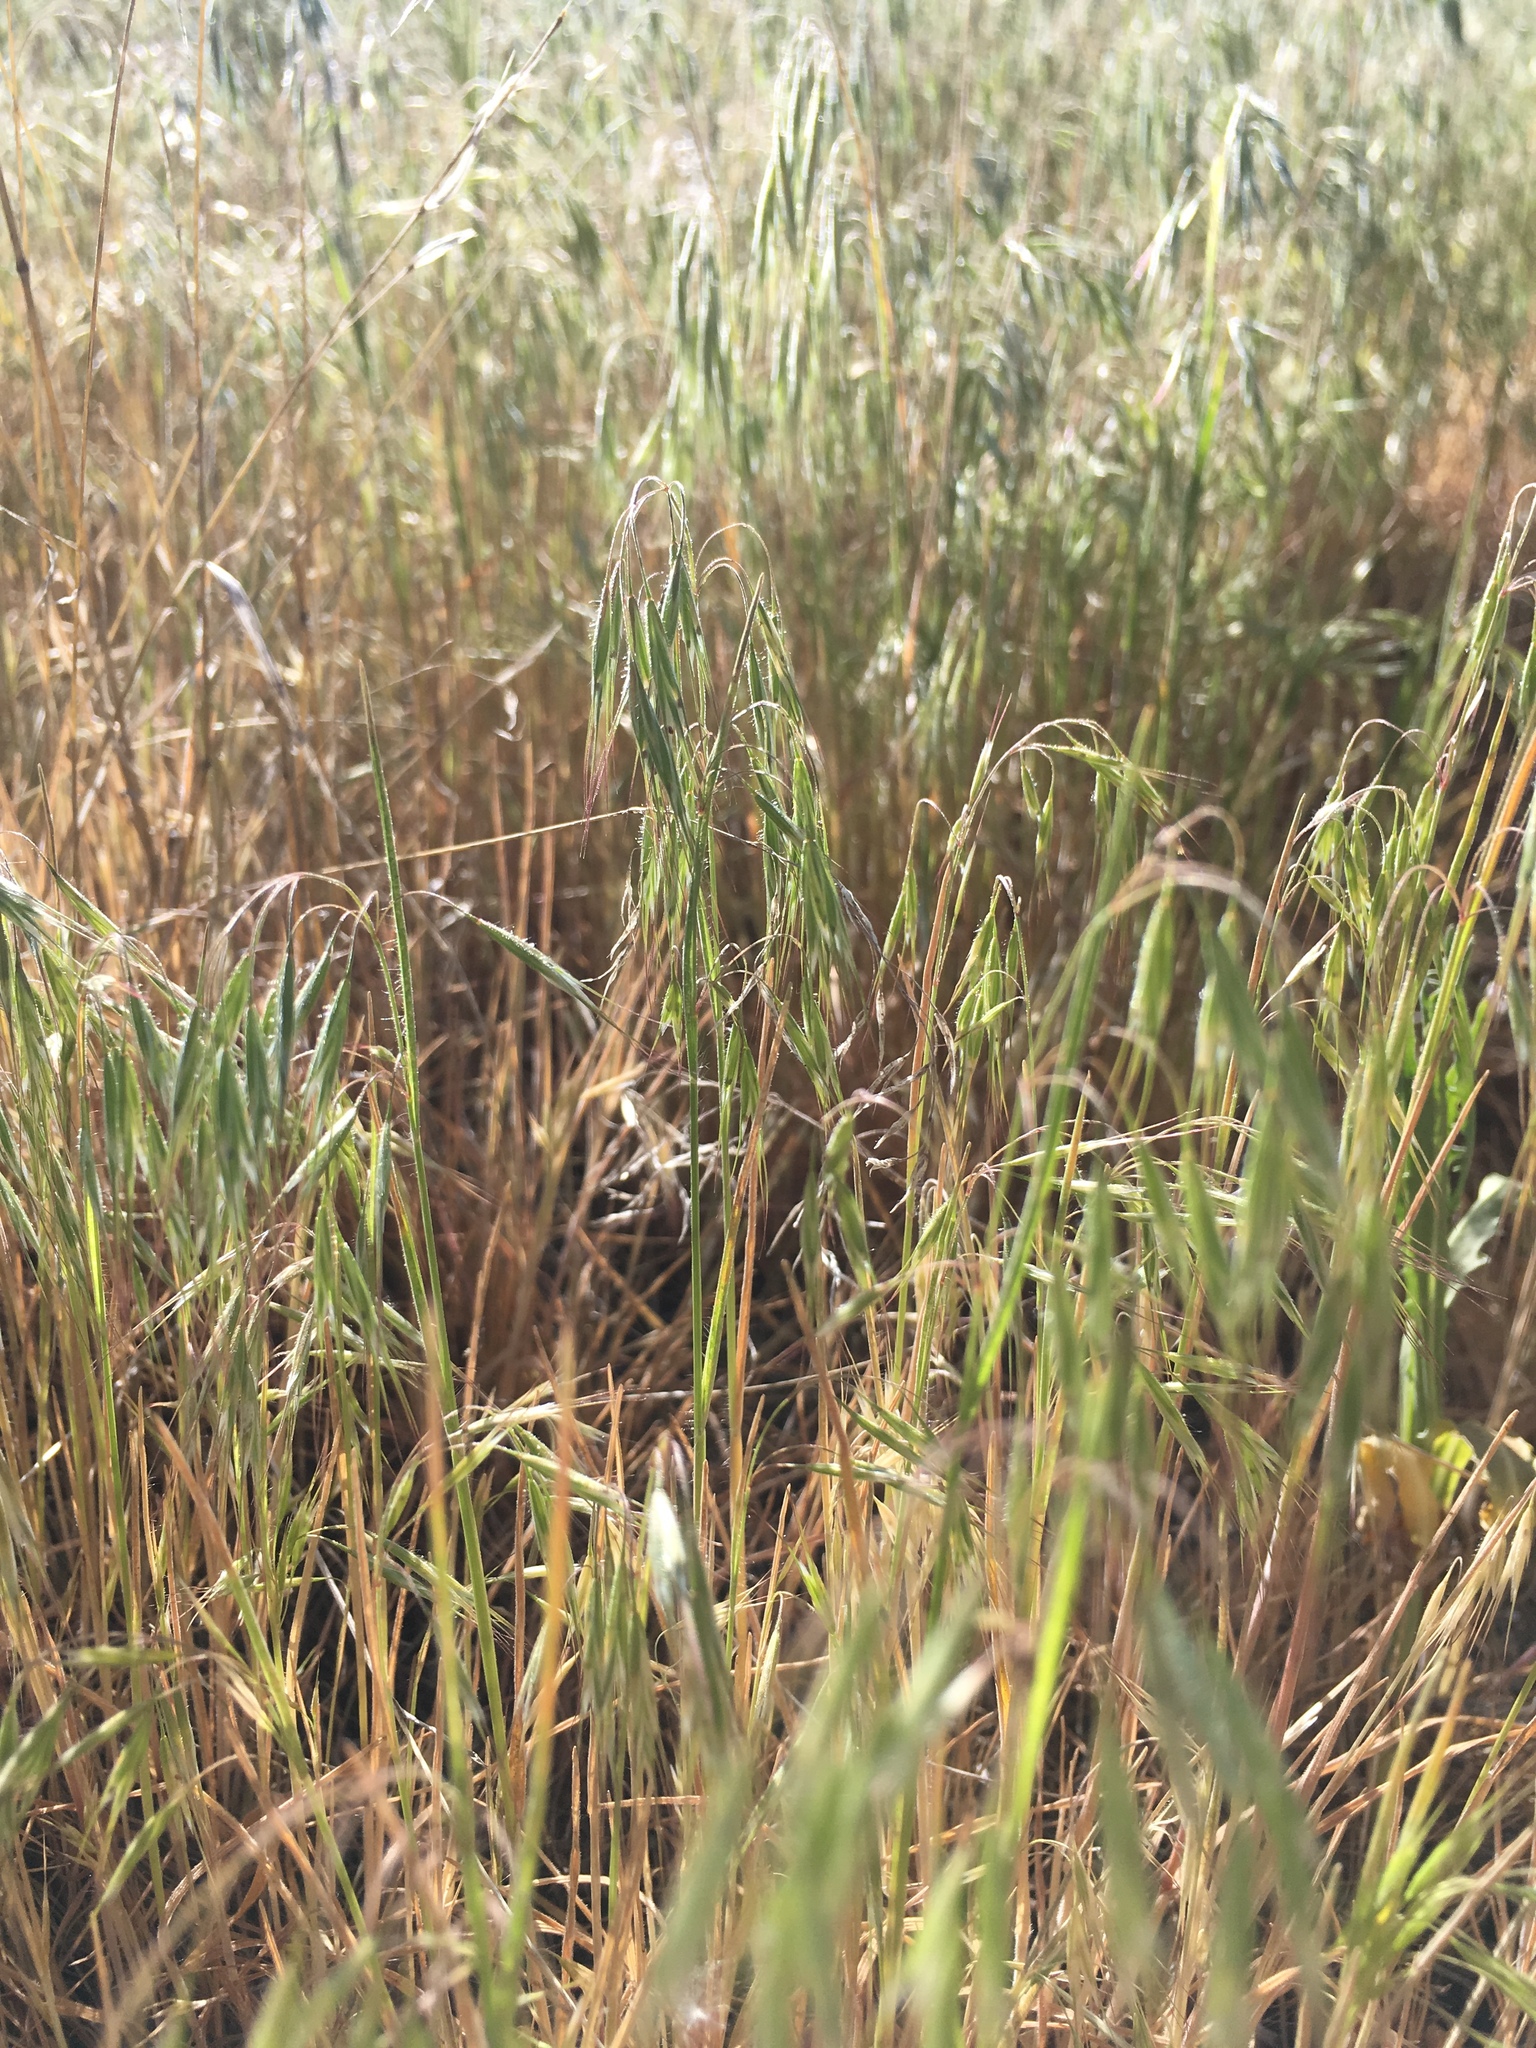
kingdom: Plantae
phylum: Tracheophyta
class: Liliopsida
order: Poales
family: Poaceae
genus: Bromus
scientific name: Bromus tectorum
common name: Cheatgrass
